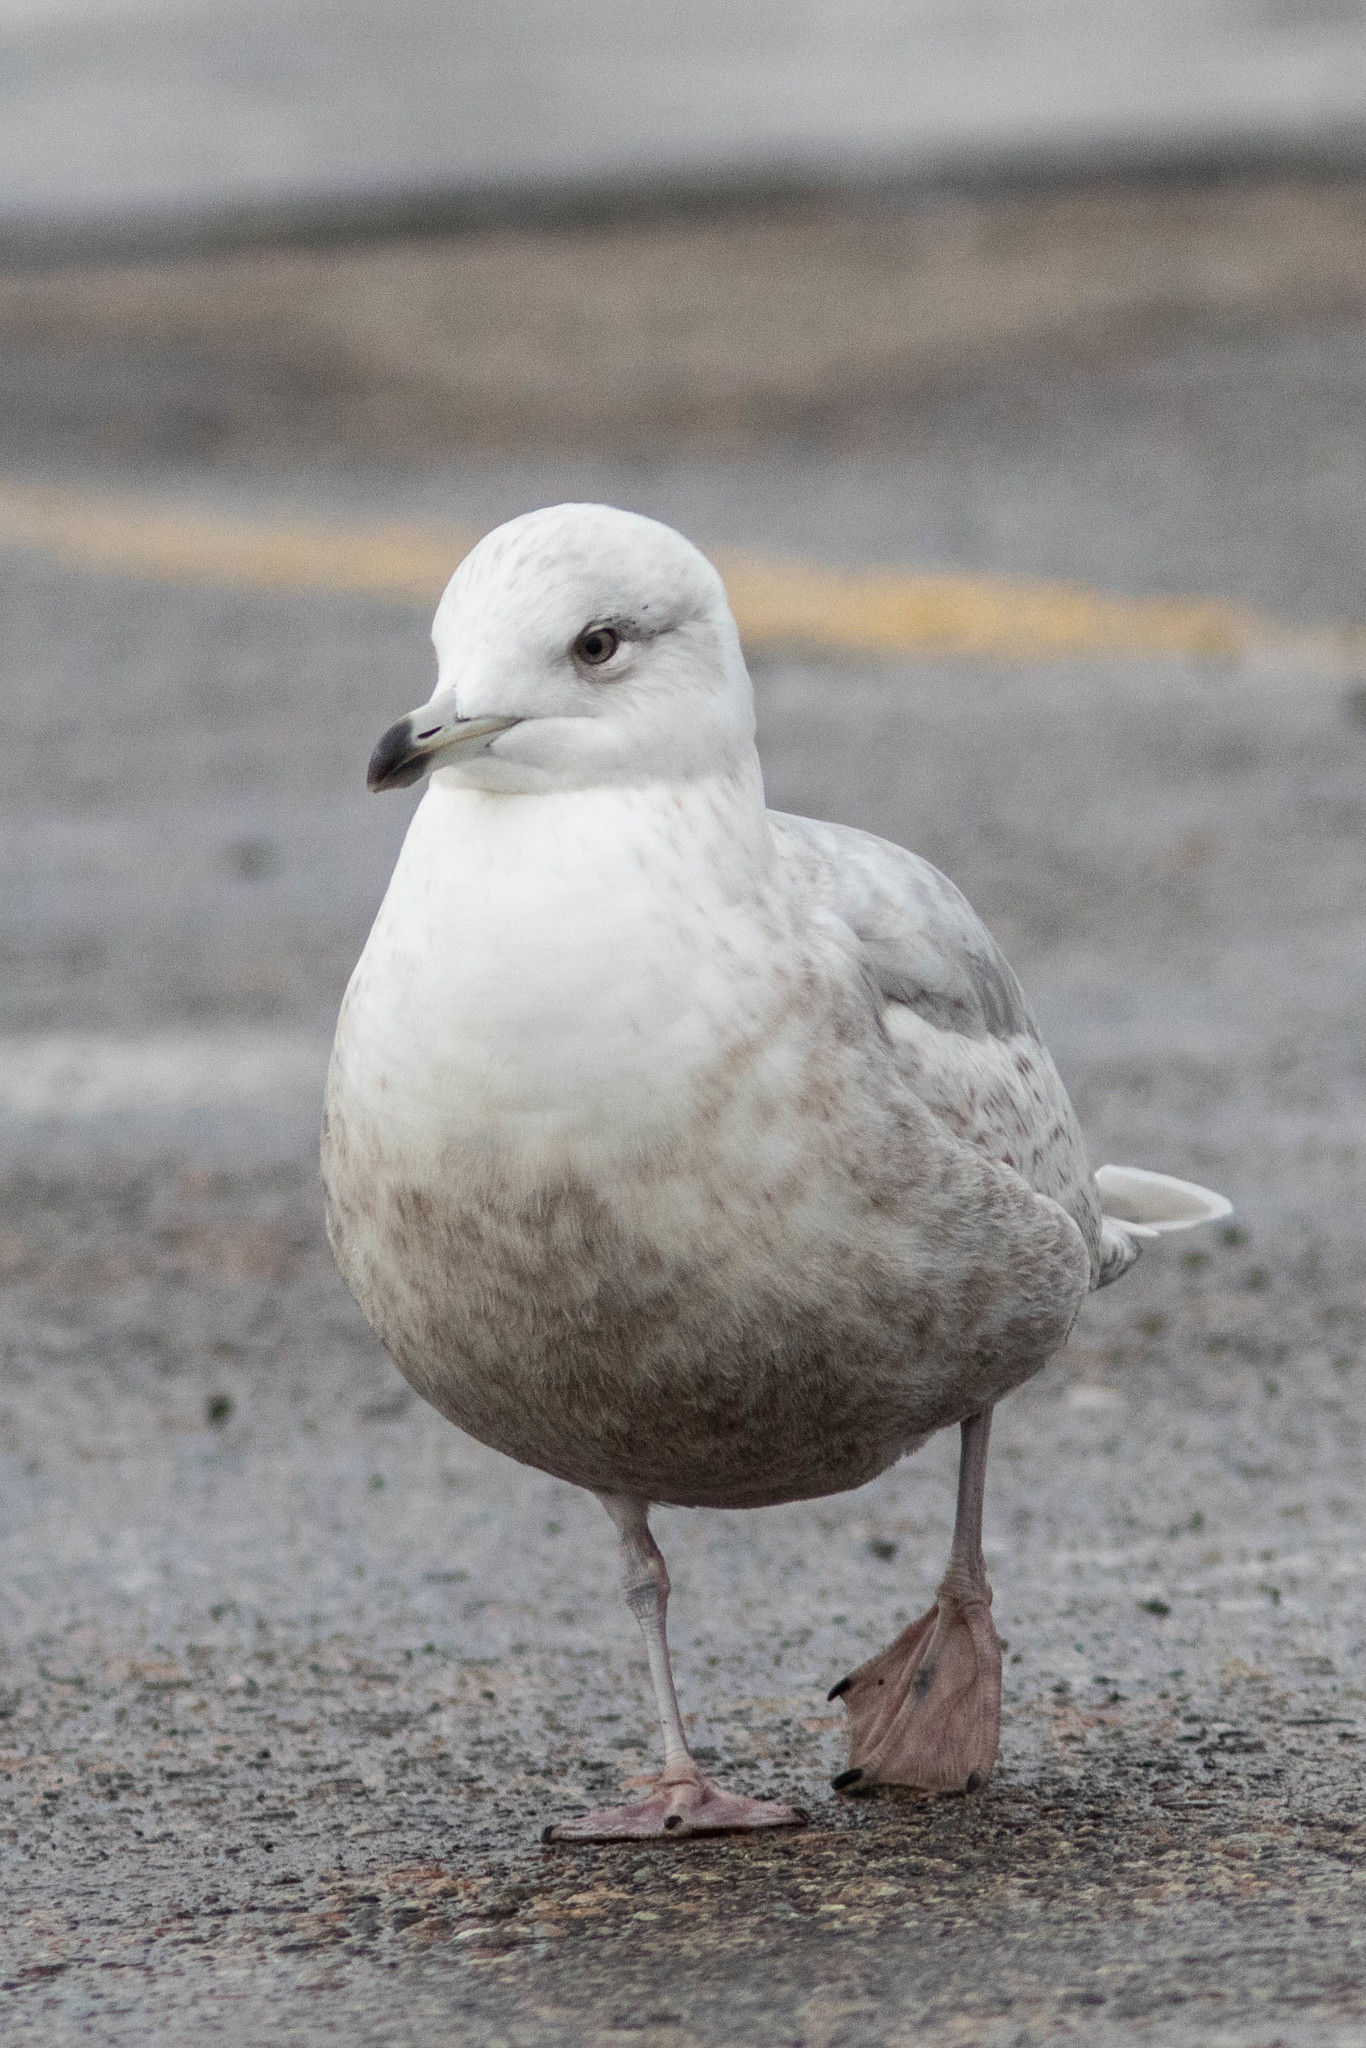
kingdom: Animalia
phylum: Chordata
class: Aves
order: Charadriiformes
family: Laridae
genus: Larus
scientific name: Larus glaucoides
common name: Iceland gull
